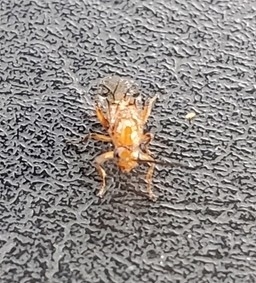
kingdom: Animalia
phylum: Arthropoda
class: Insecta
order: Hymenoptera
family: Cynipidae
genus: Belonocnema
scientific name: Belonocnema kinseyi
